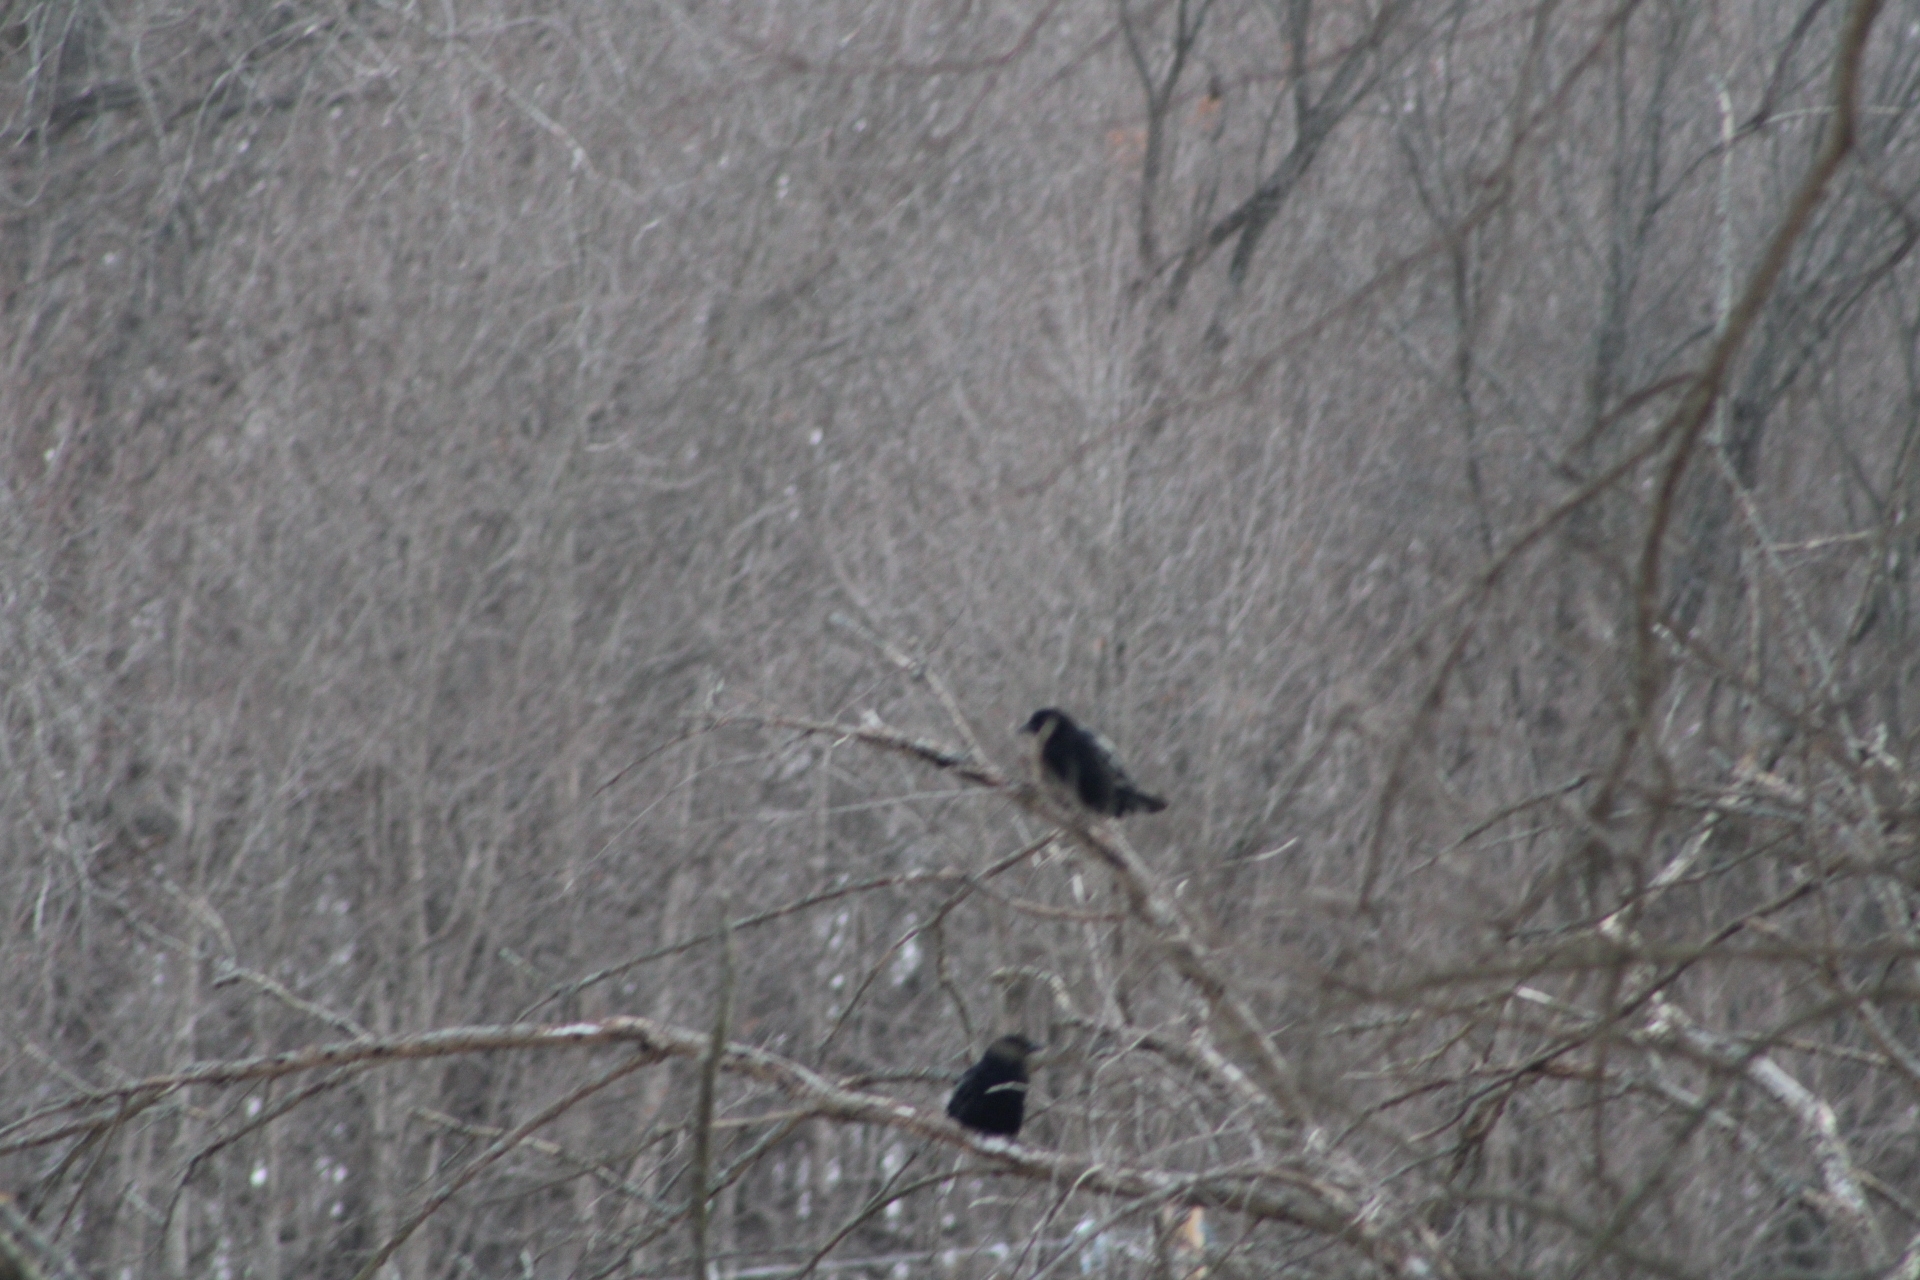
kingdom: Animalia
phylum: Chordata
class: Aves
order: Passeriformes
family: Corvidae
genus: Corvus
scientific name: Corvus brachyrhynchos
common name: American crow
